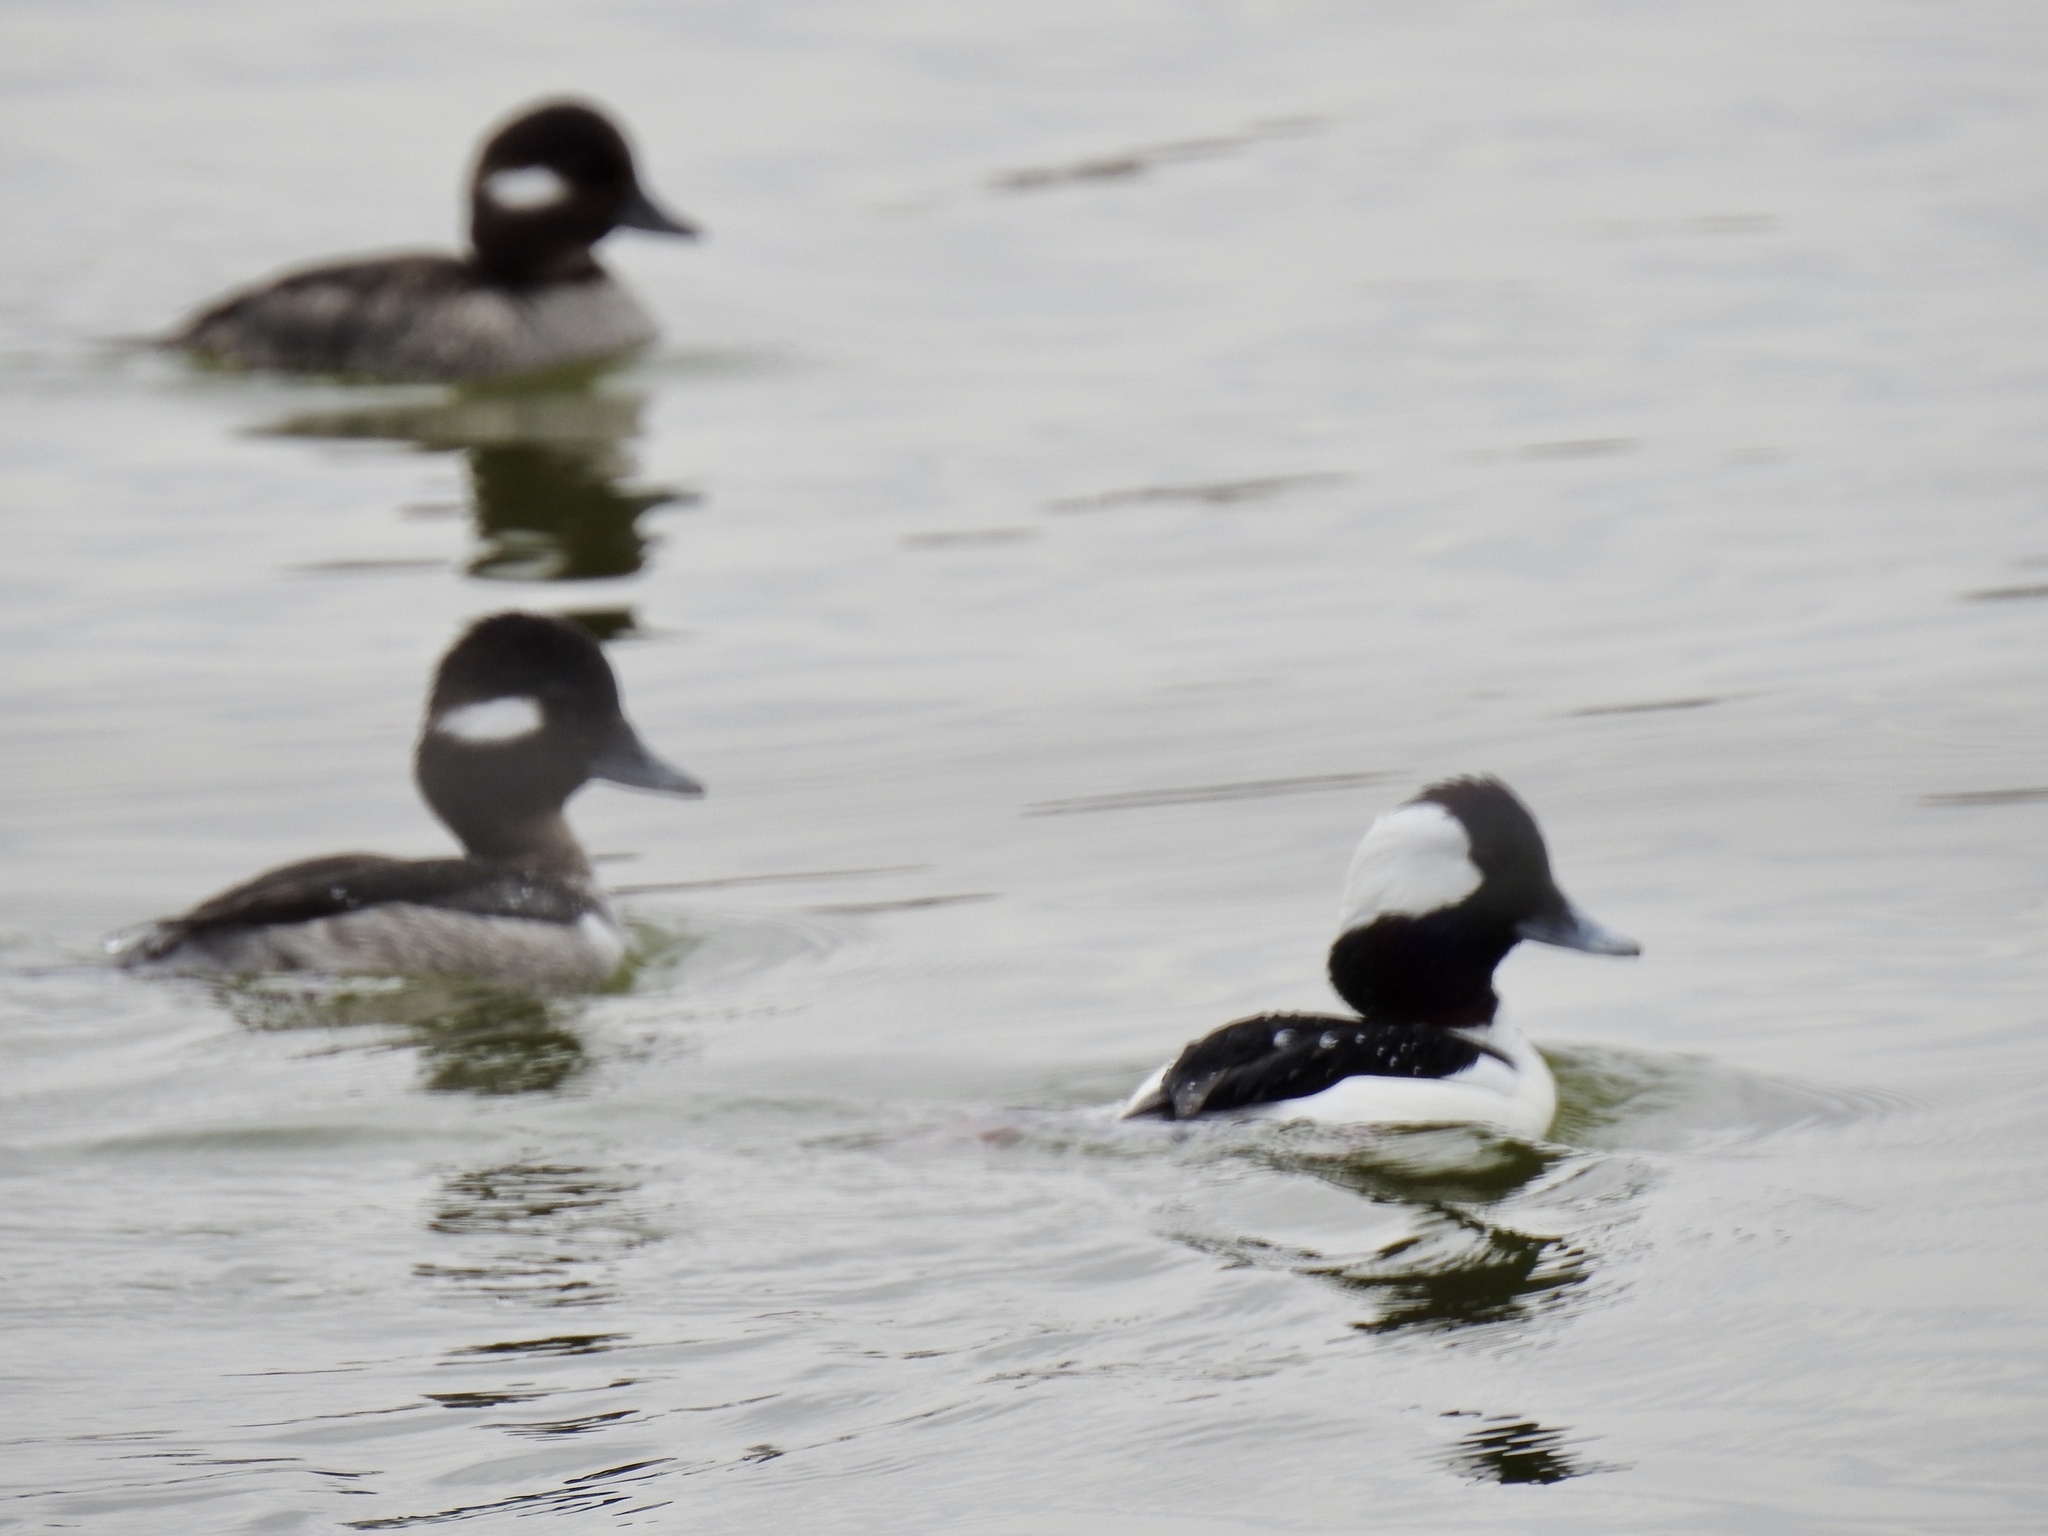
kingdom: Animalia
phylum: Chordata
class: Aves
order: Anseriformes
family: Anatidae
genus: Bucephala
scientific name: Bucephala albeola
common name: Bufflehead
